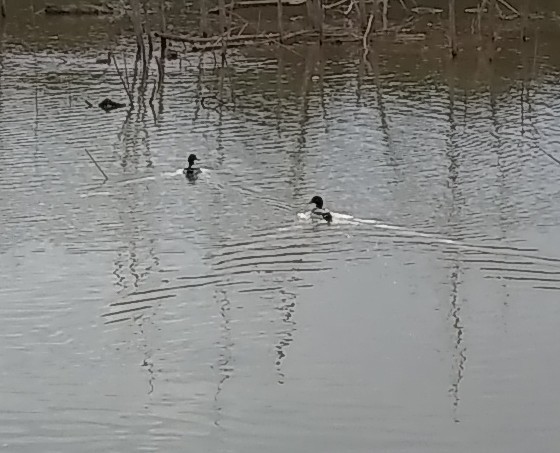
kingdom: Animalia
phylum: Chordata
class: Aves
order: Anseriformes
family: Anatidae
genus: Anas
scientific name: Anas platyrhynchos
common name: Mallard
